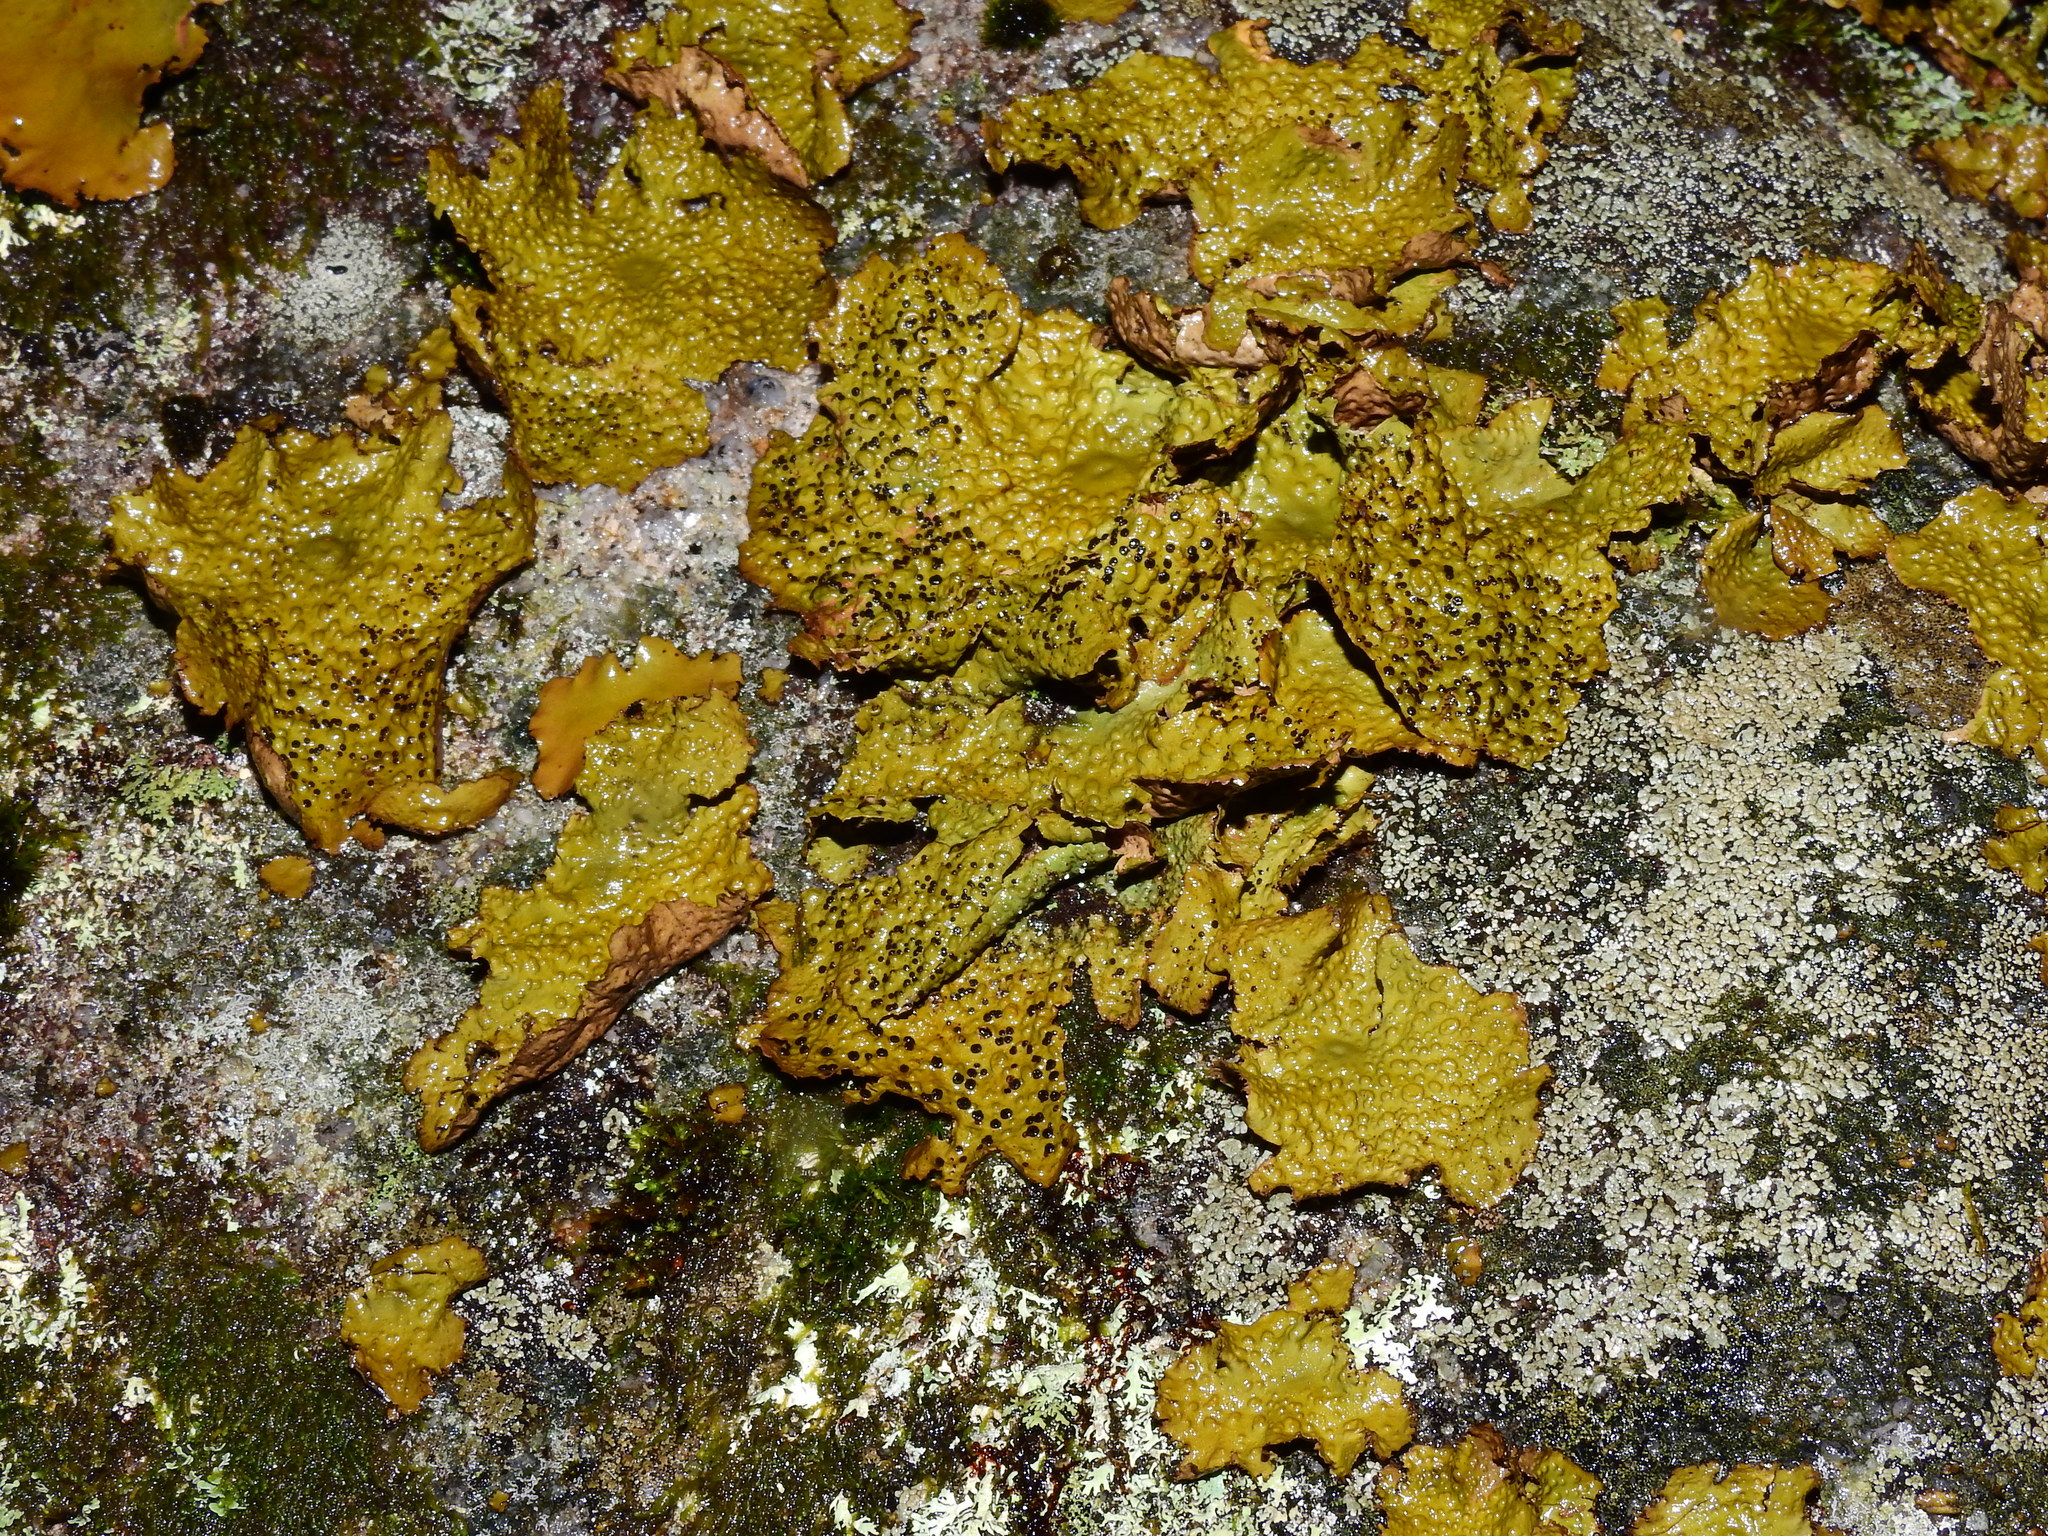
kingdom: Fungi
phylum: Ascomycota
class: Lecanoromycetes
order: Umbilicariales
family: Umbilicariaceae
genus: Lasallia
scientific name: Lasallia pensylvanica
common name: Blackened toadskin lichen
